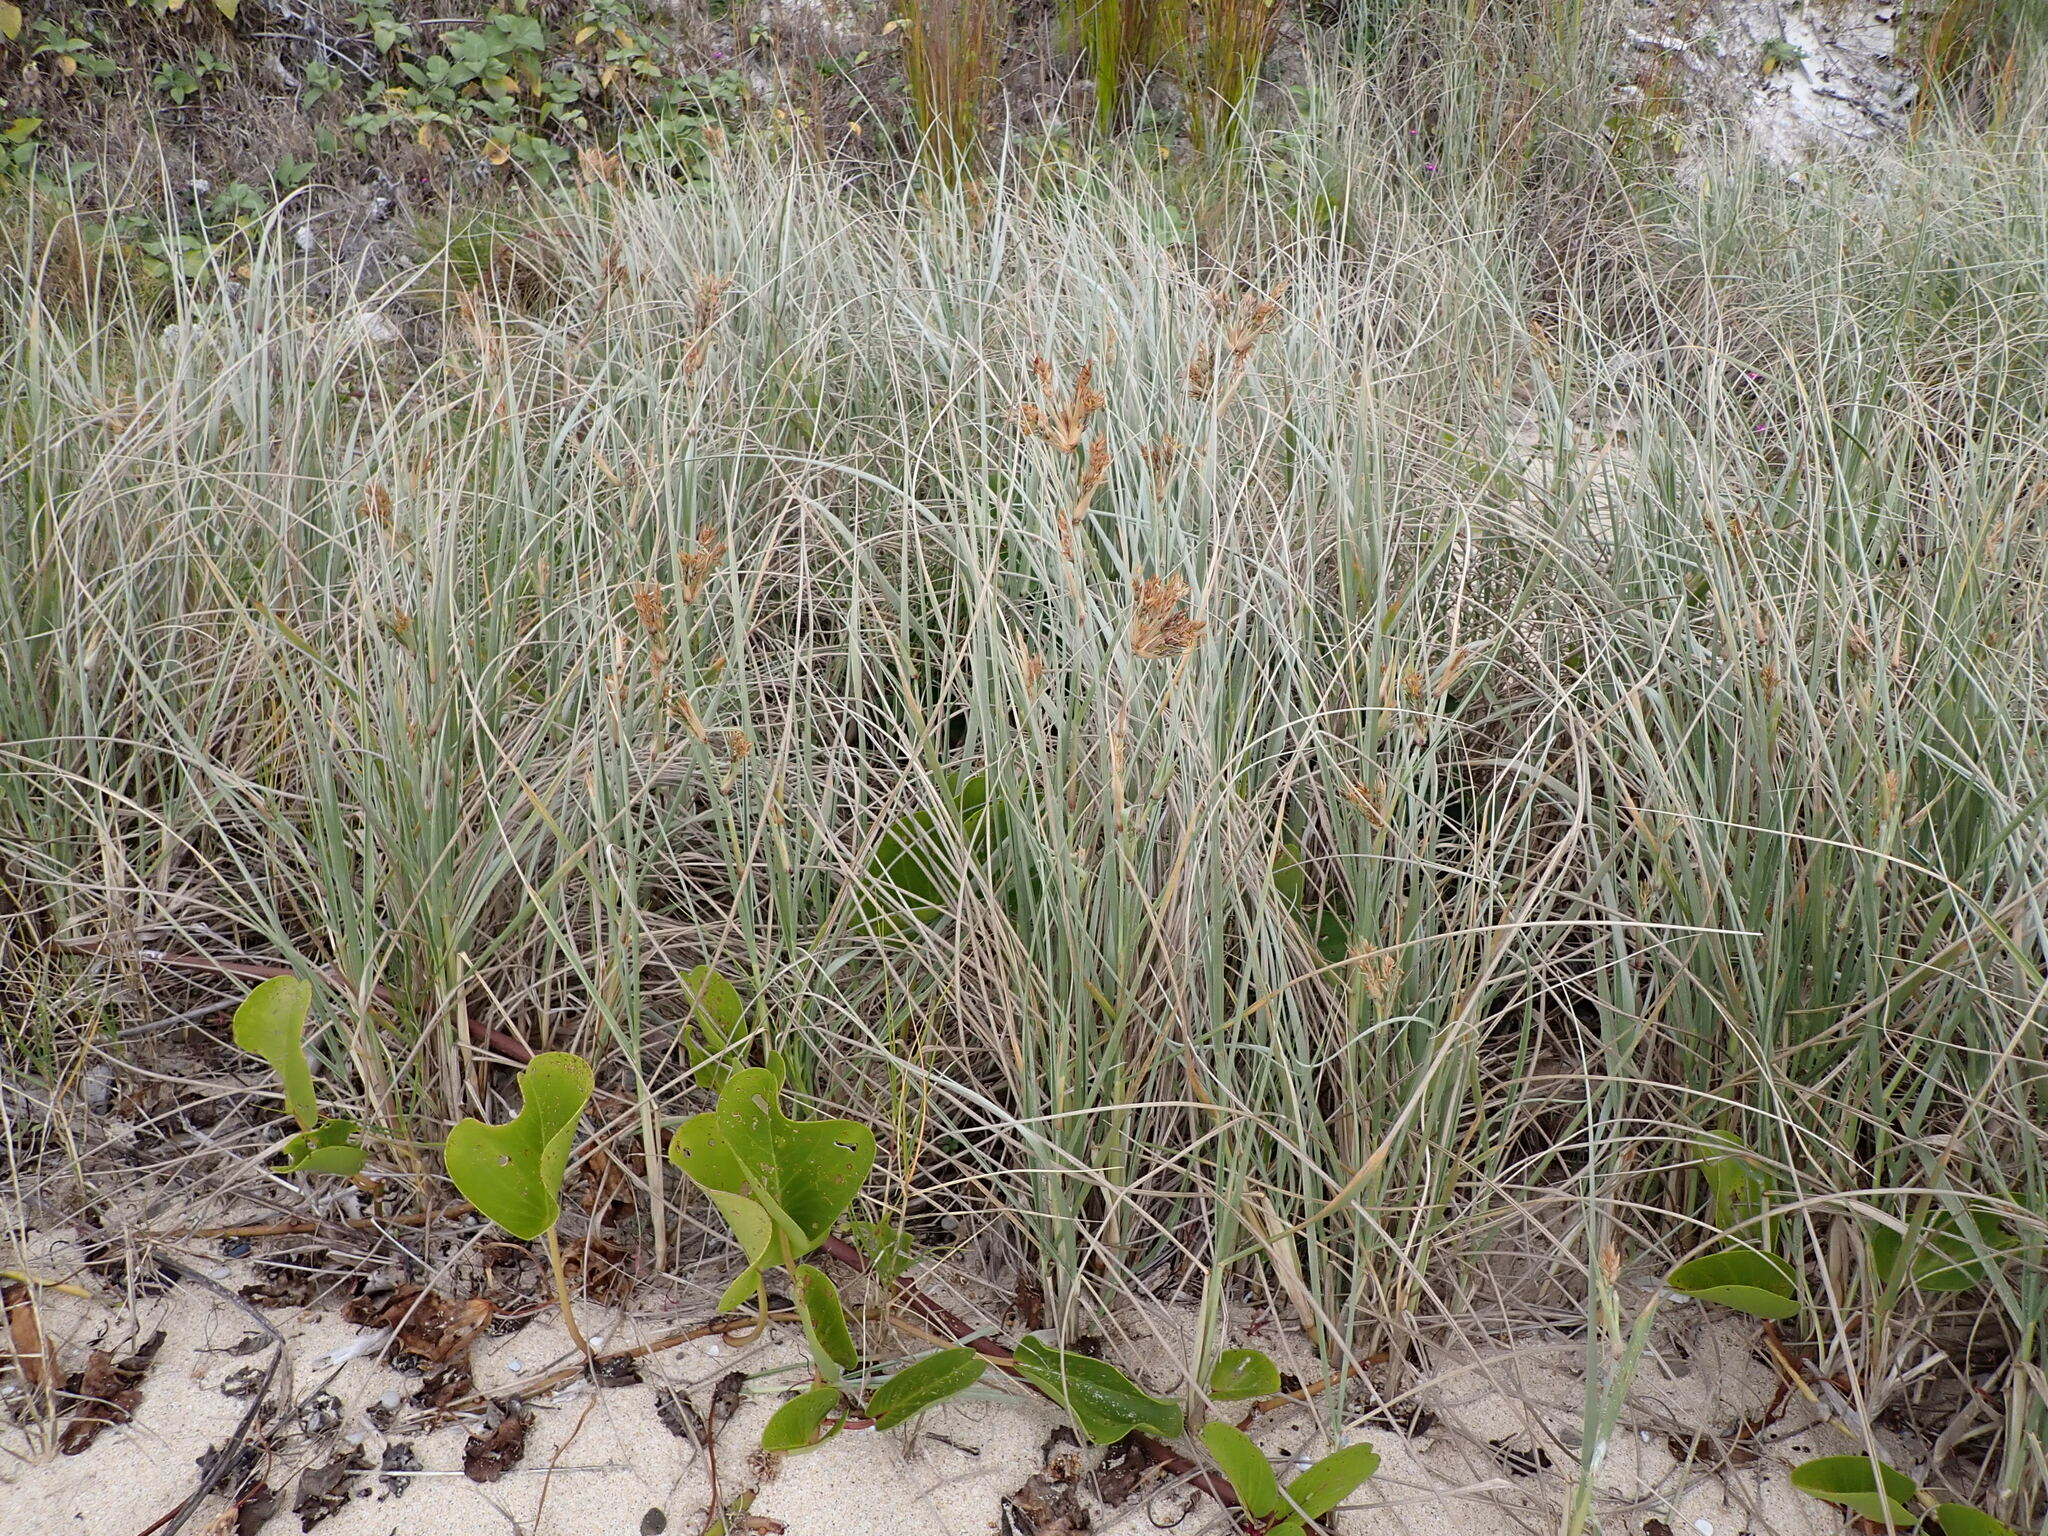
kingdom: Plantae
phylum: Tracheophyta
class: Liliopsida
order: Poales
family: Poaceae
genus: Spinifex
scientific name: Spinifex sericeus
